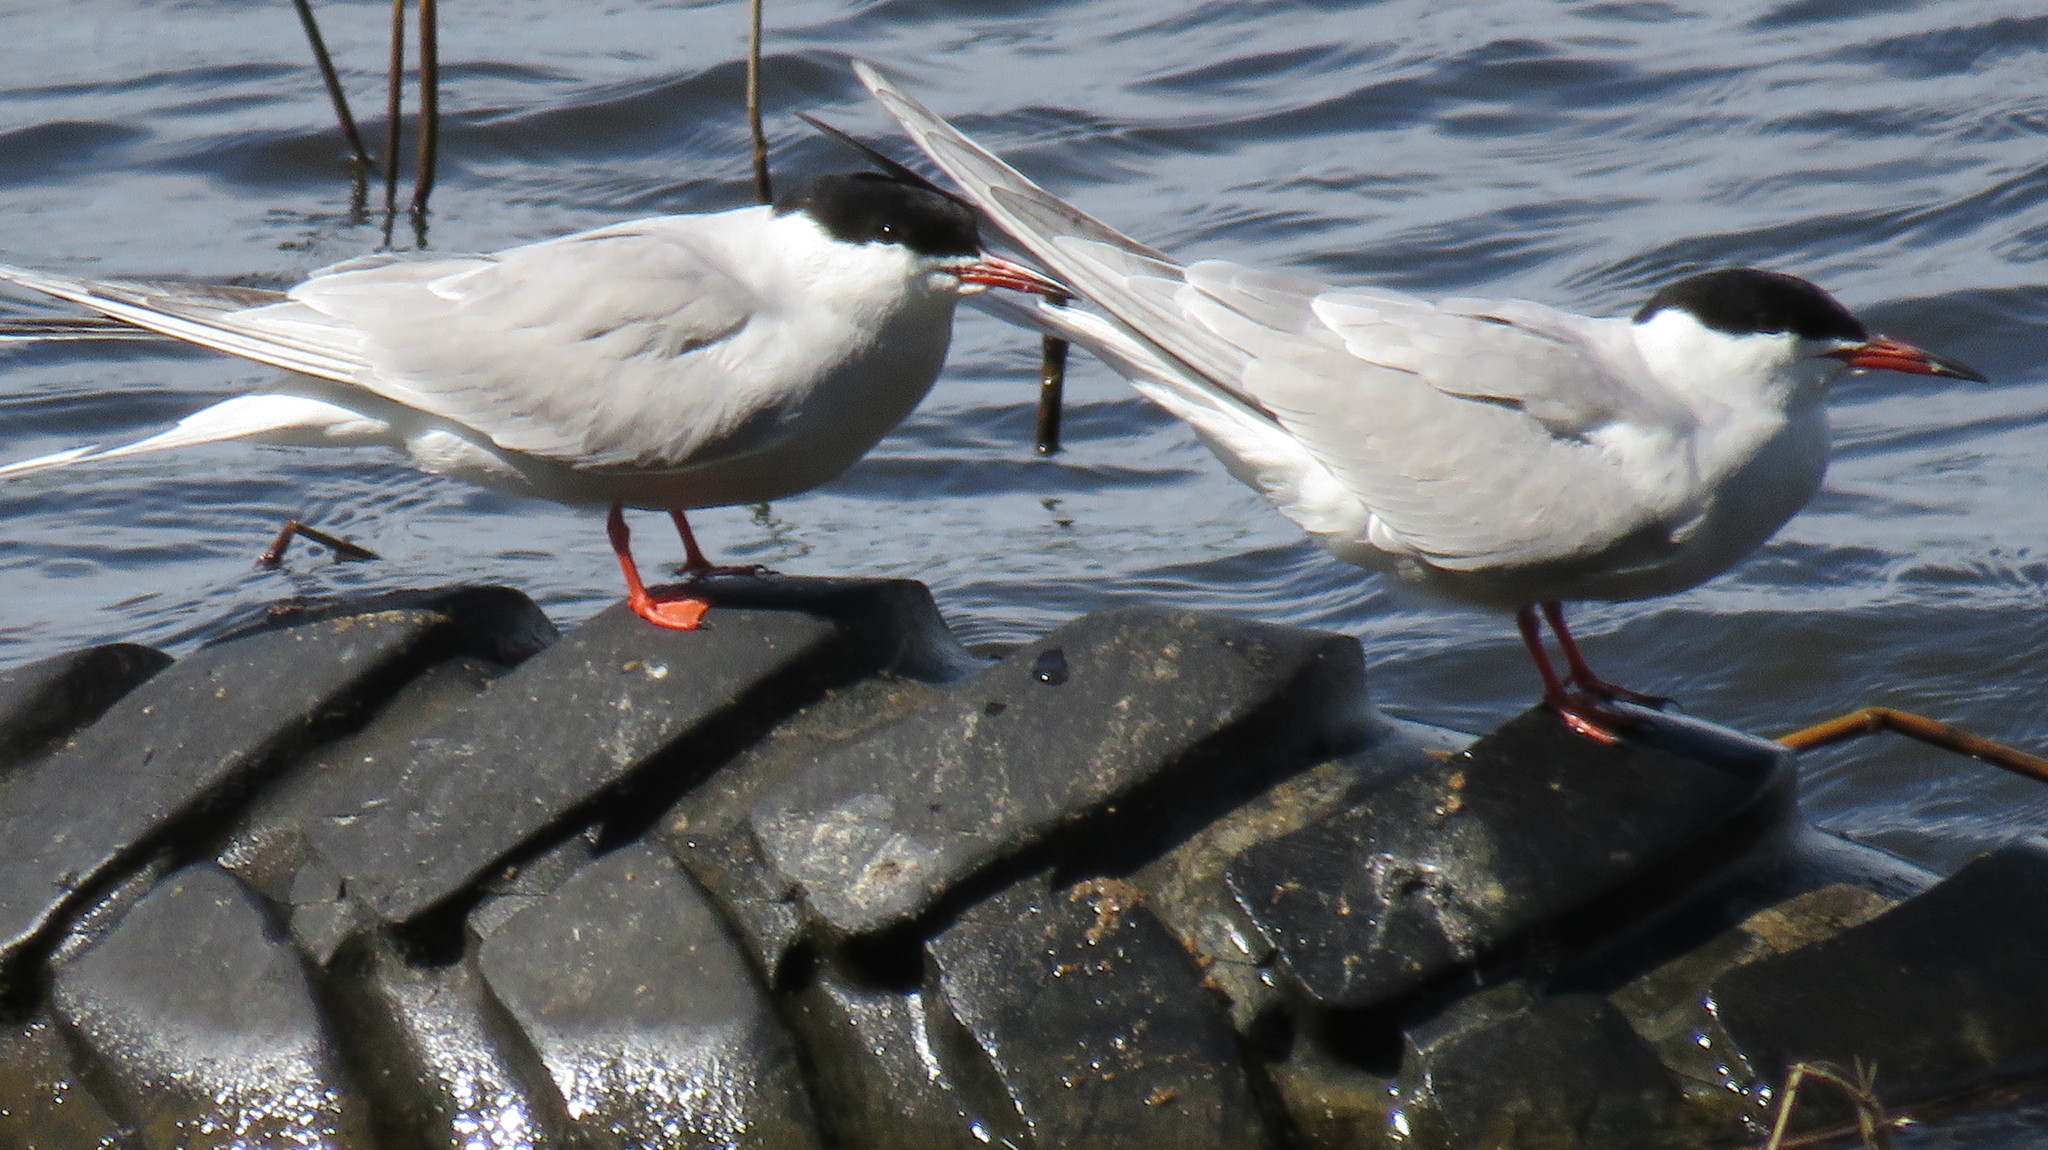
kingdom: Animalia
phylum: Chordata
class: Aves
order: Charadriiformes
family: Laridae
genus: Sterna
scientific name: Sterna hirundo
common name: Common tern
